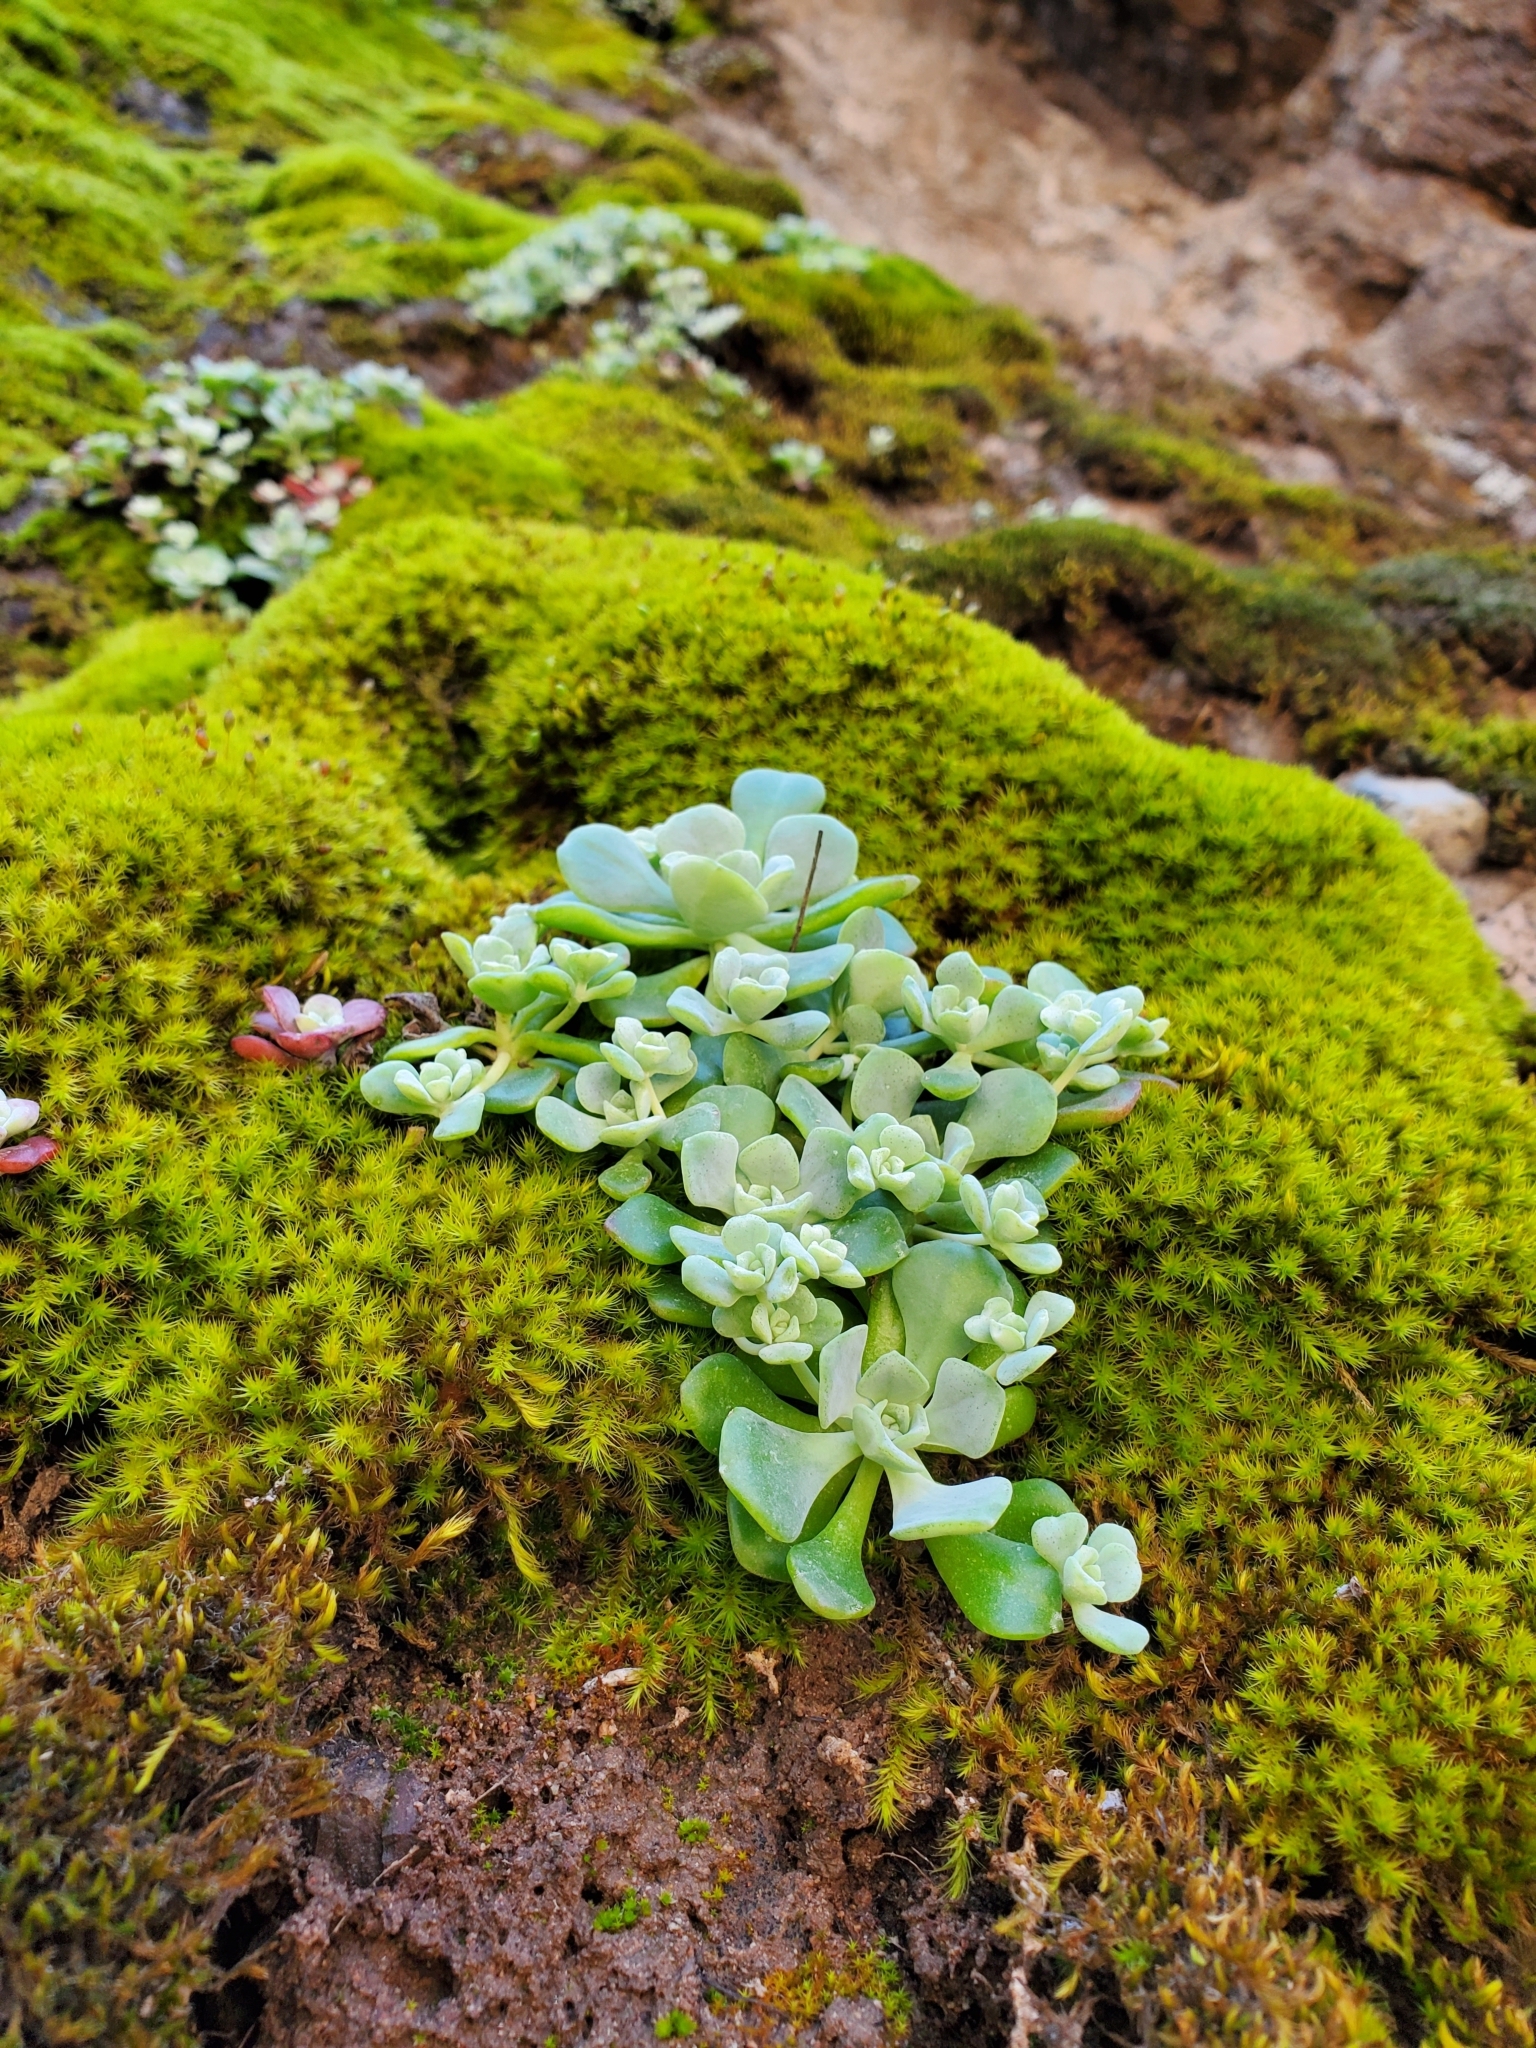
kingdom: Plantae
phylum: Tracheophyta
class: Magnoliopsida
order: Saxifragales
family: Crassulaceae
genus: Sedum
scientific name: Sedum spathulifolium
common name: Colorado stonecrop
